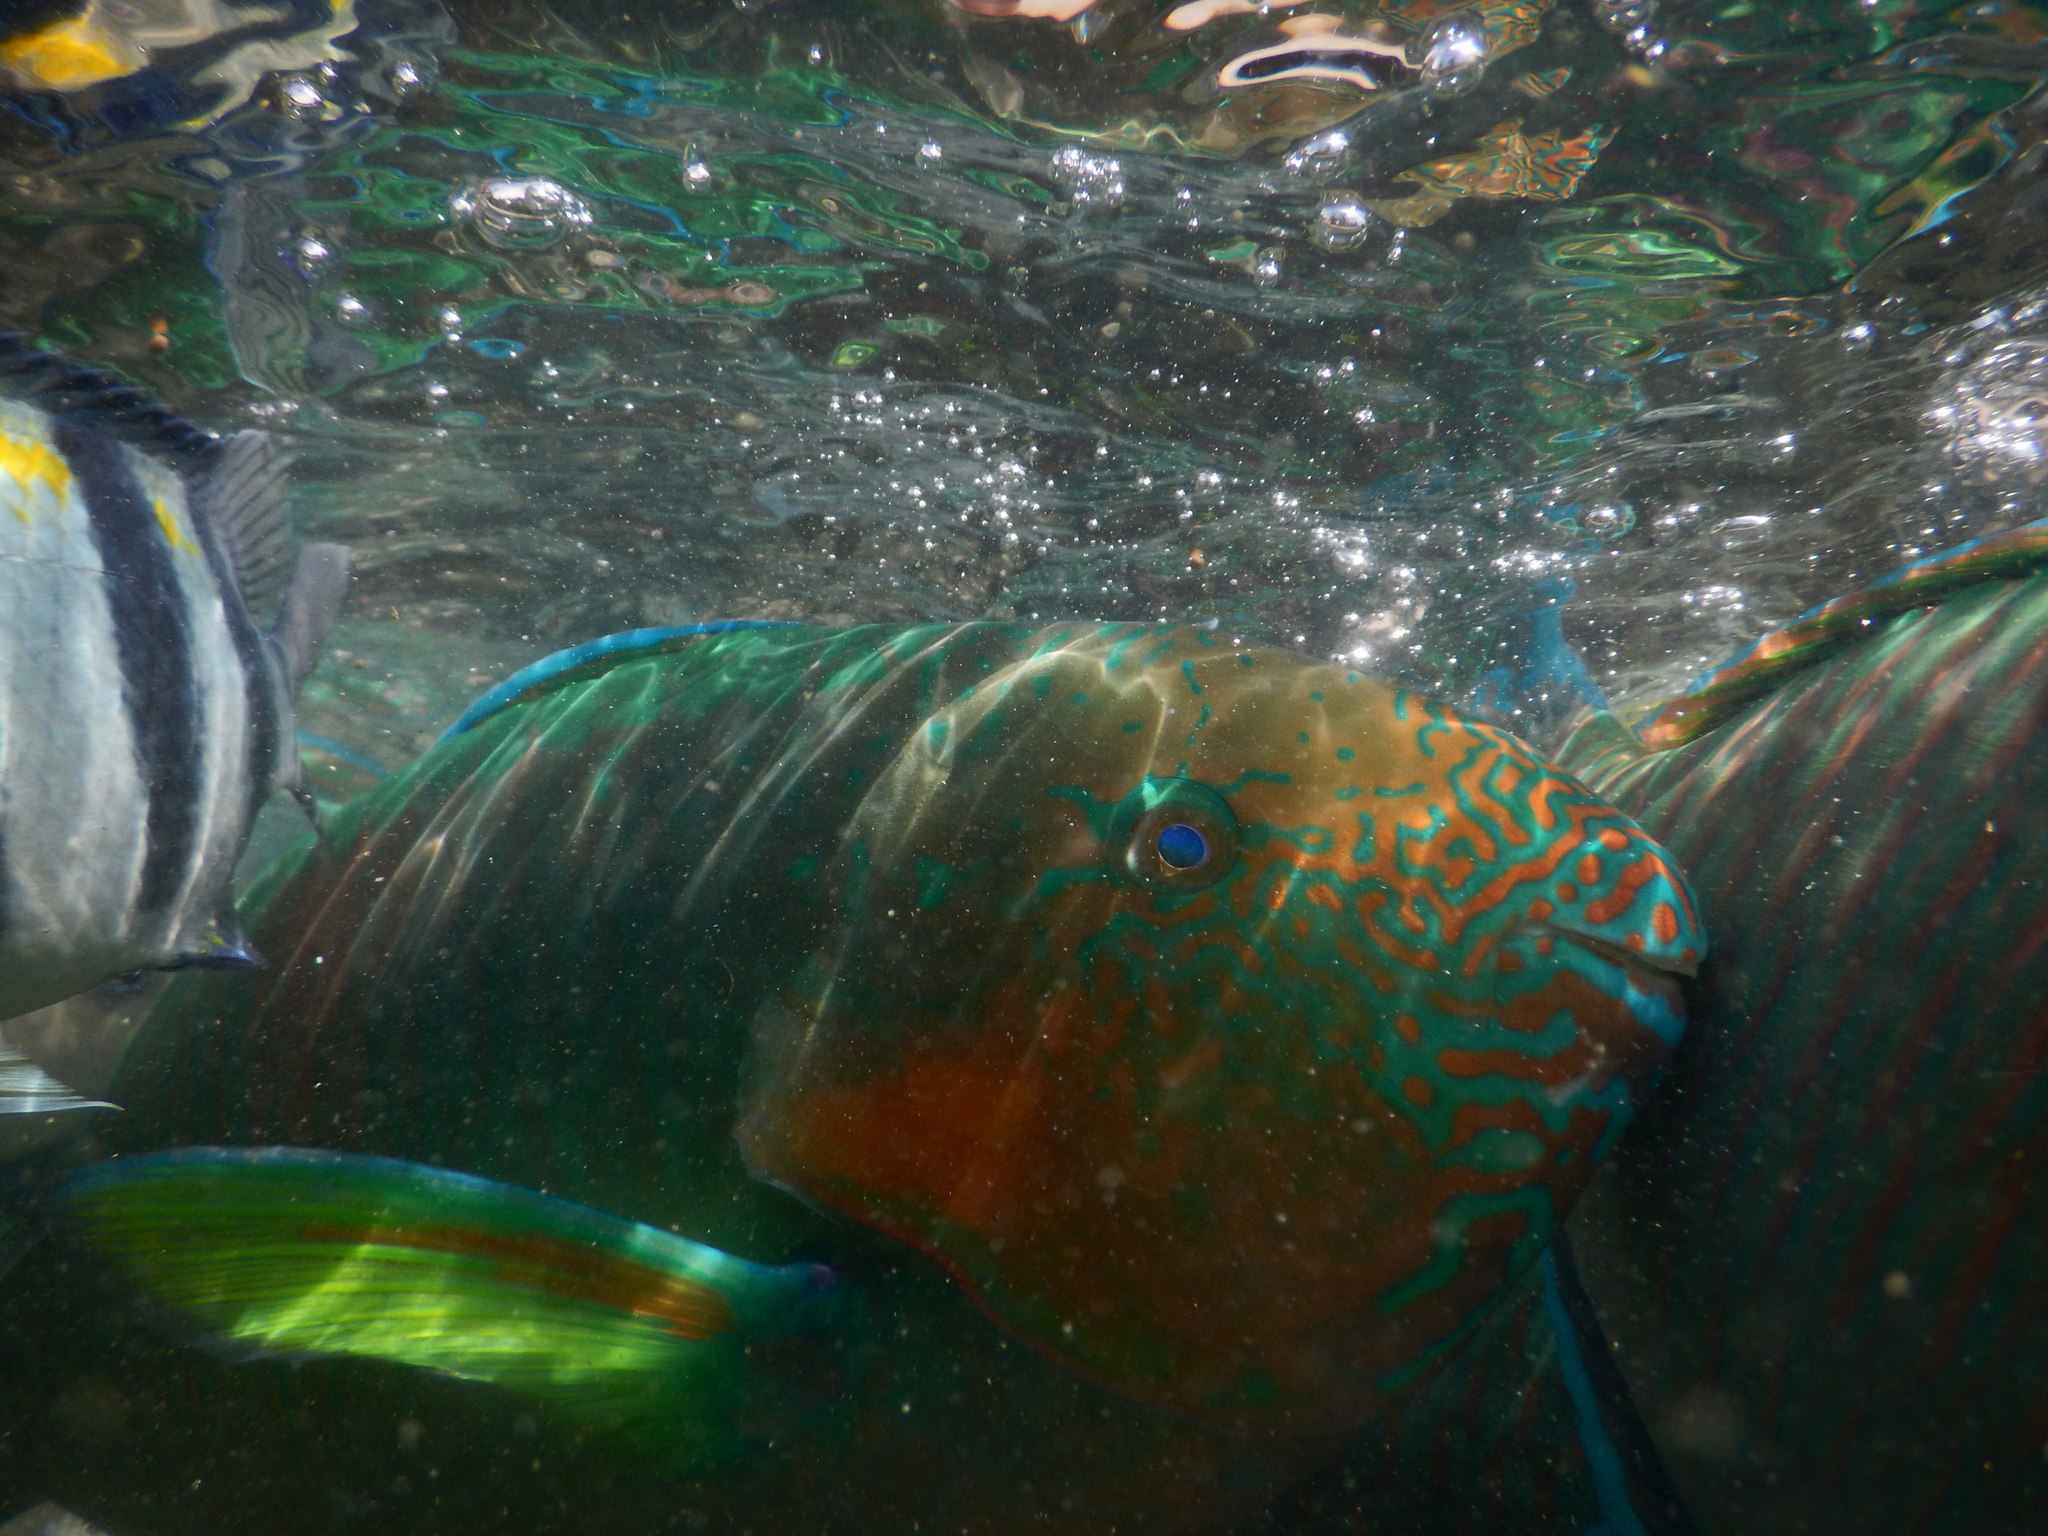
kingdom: Animalia
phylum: Chordata
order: Perciformes
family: Scaridae
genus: Scarus
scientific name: Scarus rivulatus
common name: Surf parrotfish
